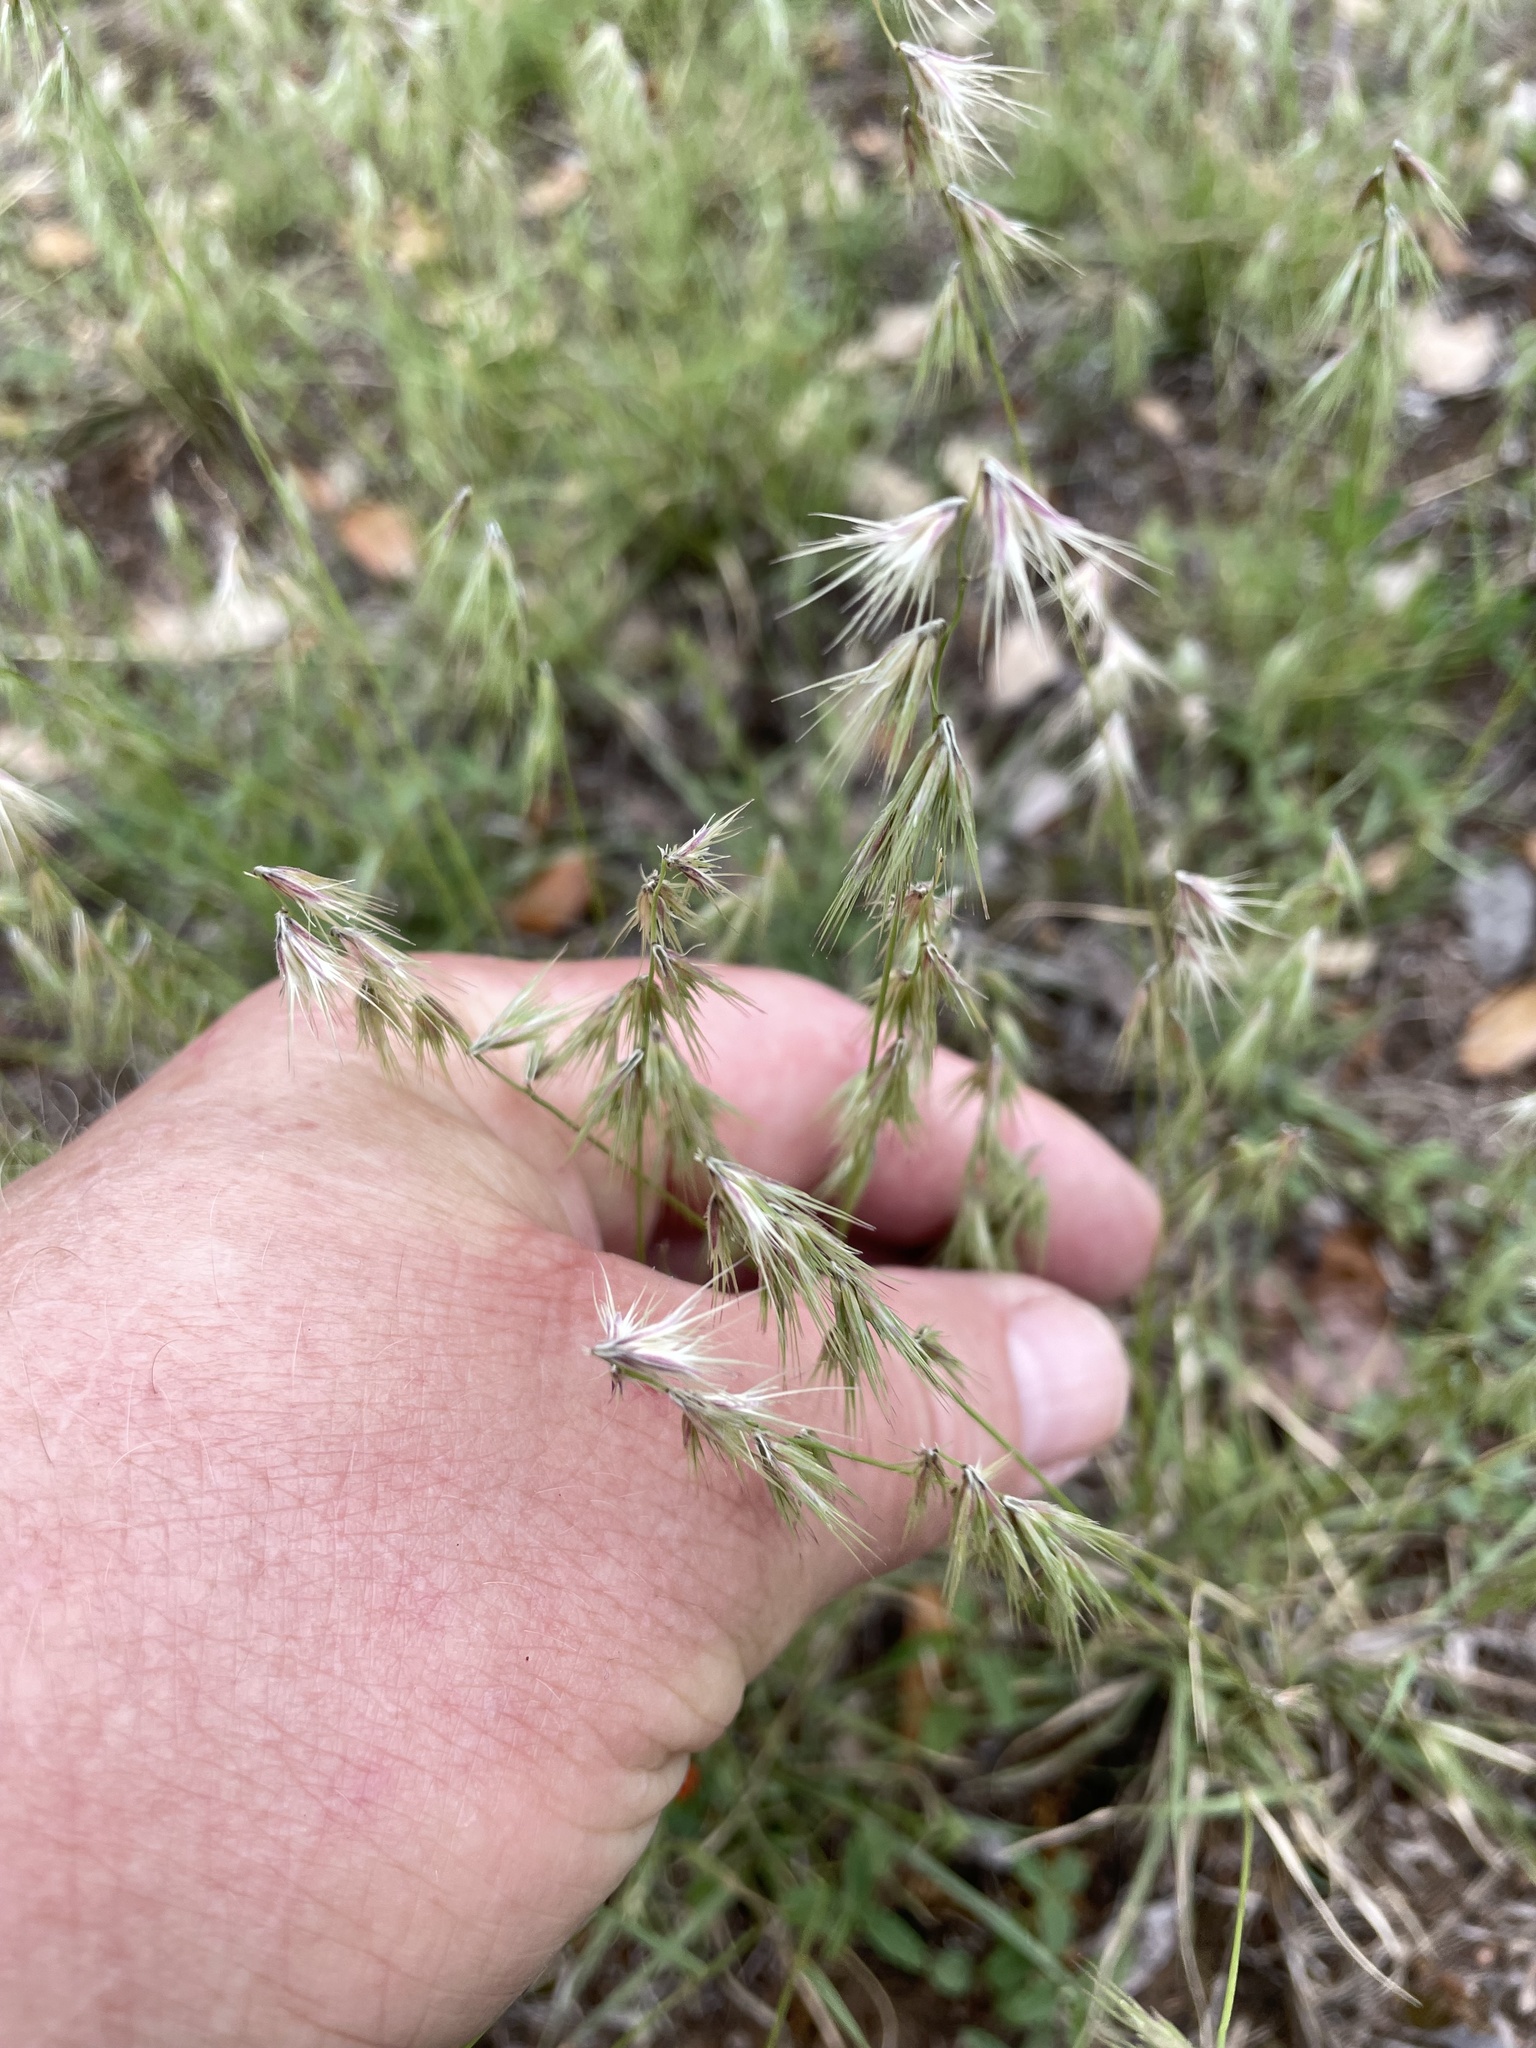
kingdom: Plantae
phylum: Tracheophyta
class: Liliopsida
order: Poales
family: Poaceae
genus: Bouteloua
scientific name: Bouteloua rigidiseta
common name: Texas grama
